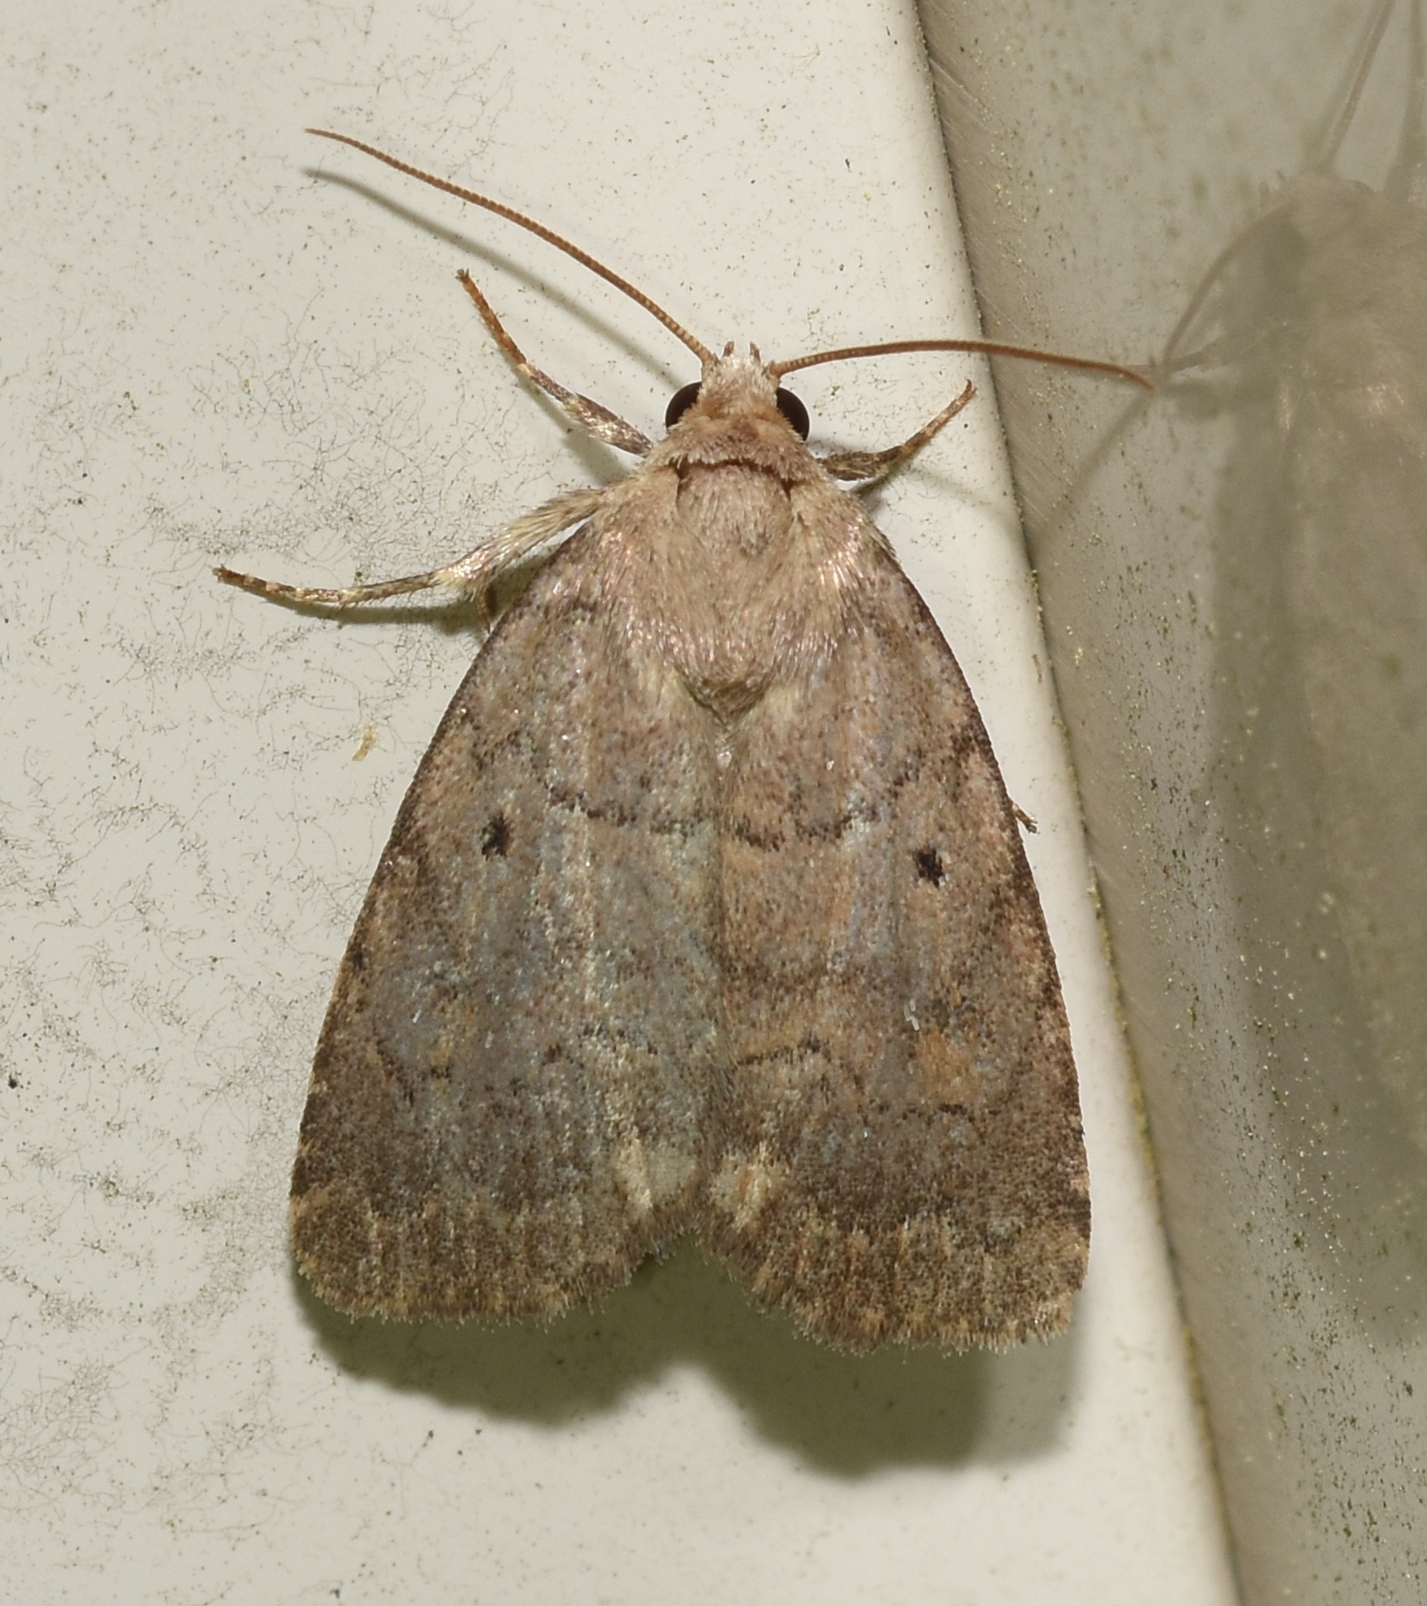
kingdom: Animalia
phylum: Arthropoda
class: Insecta
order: Lepidoptera
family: Noctuidae
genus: Athetis
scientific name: Athetis tarda
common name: Slowpoke moth
